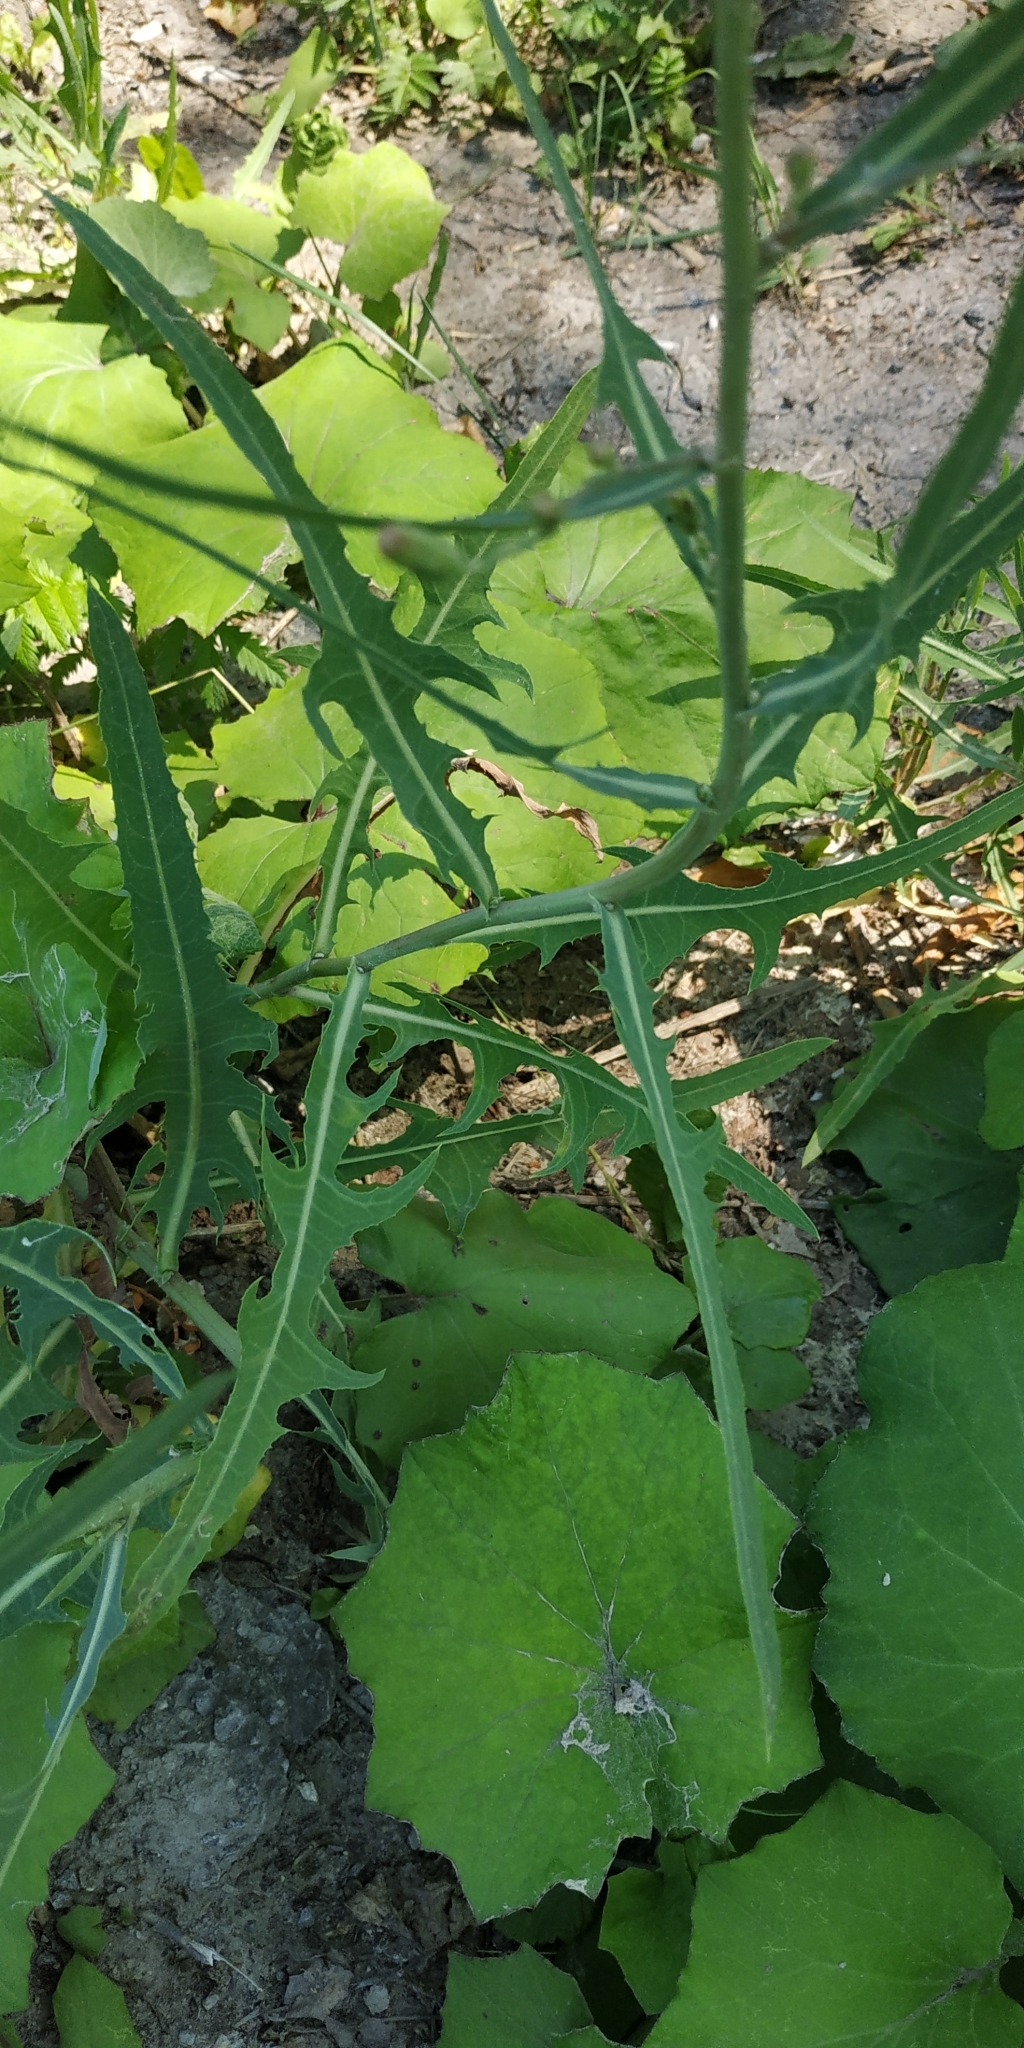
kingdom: Plantae
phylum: Tracheophyta
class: Magnoliopsida
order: Asterales
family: Asteraceae
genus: Lactuca
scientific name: Lactuca tatarica
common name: Blue lettuce
